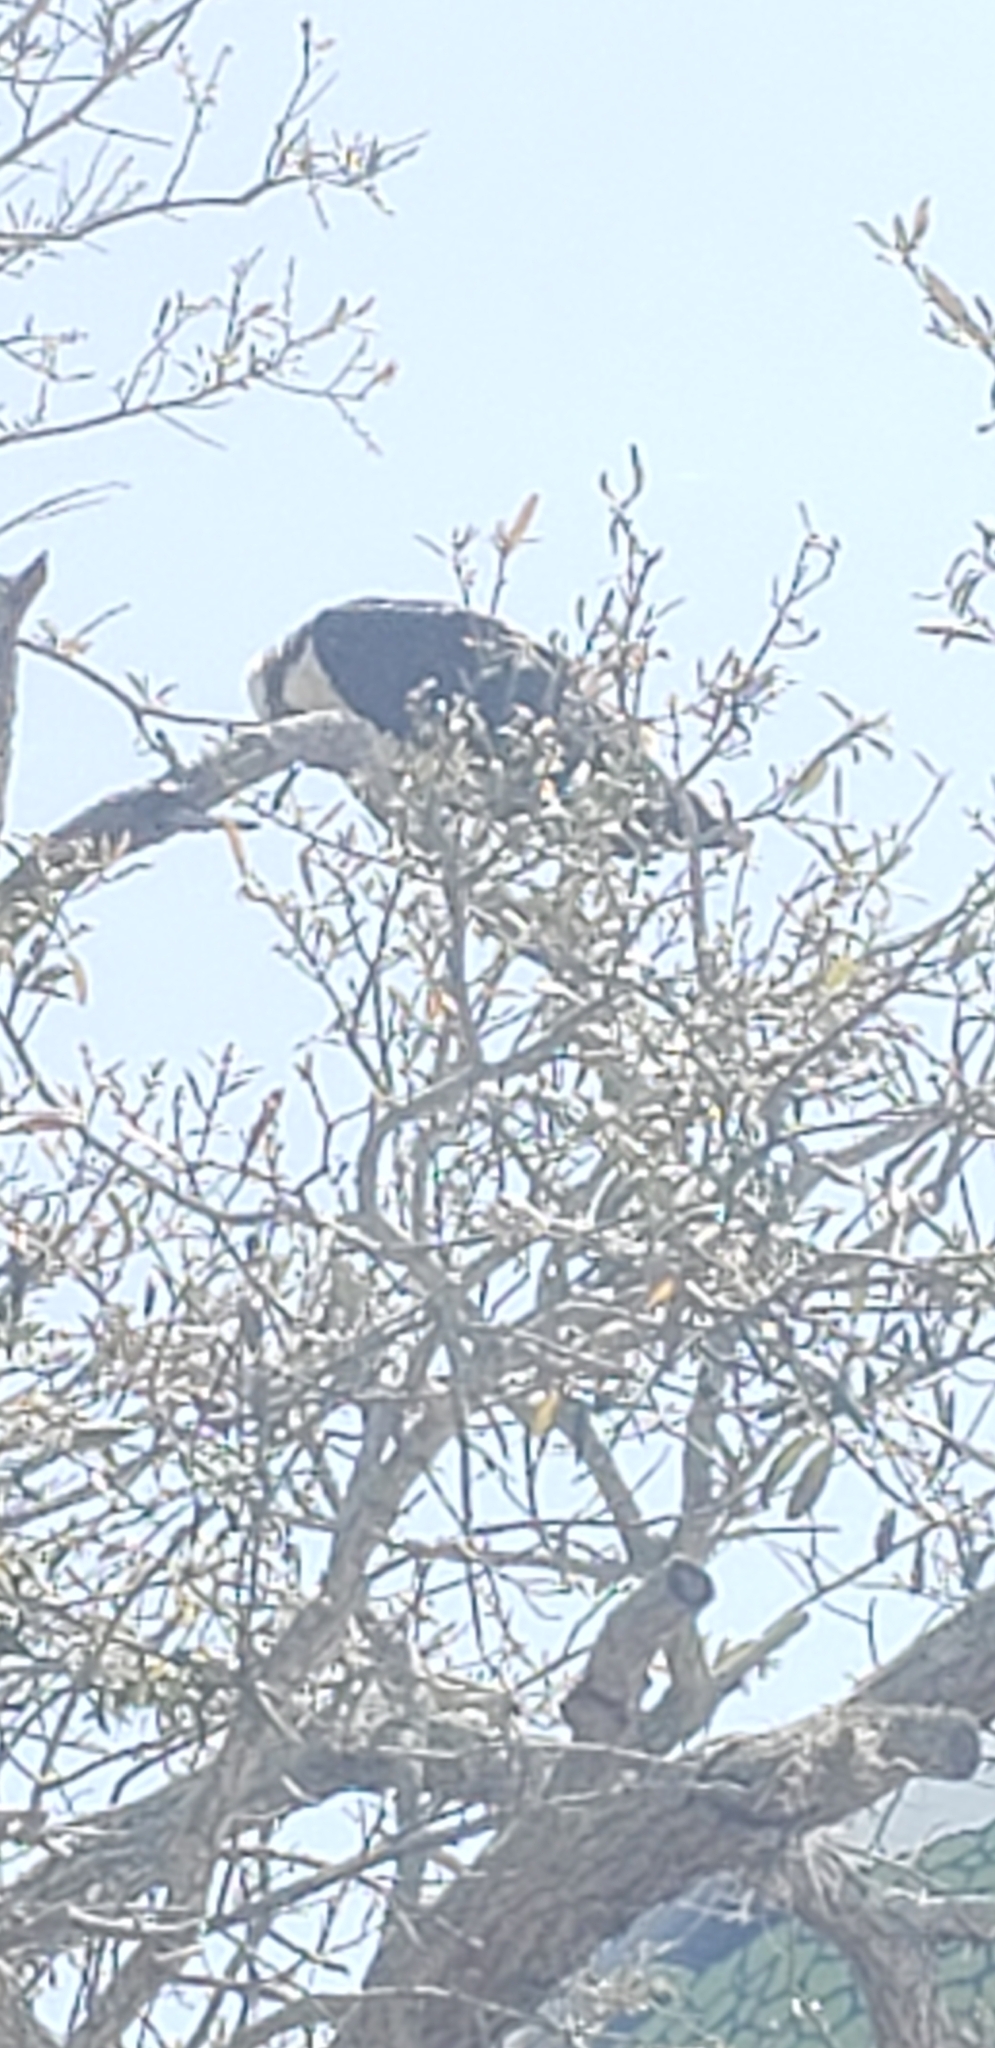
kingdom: Animalia
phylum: Chordata
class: Aves
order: Accipitriformes
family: Pandionidae
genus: Pandion
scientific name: Pandion haliaetus
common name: Osprey
